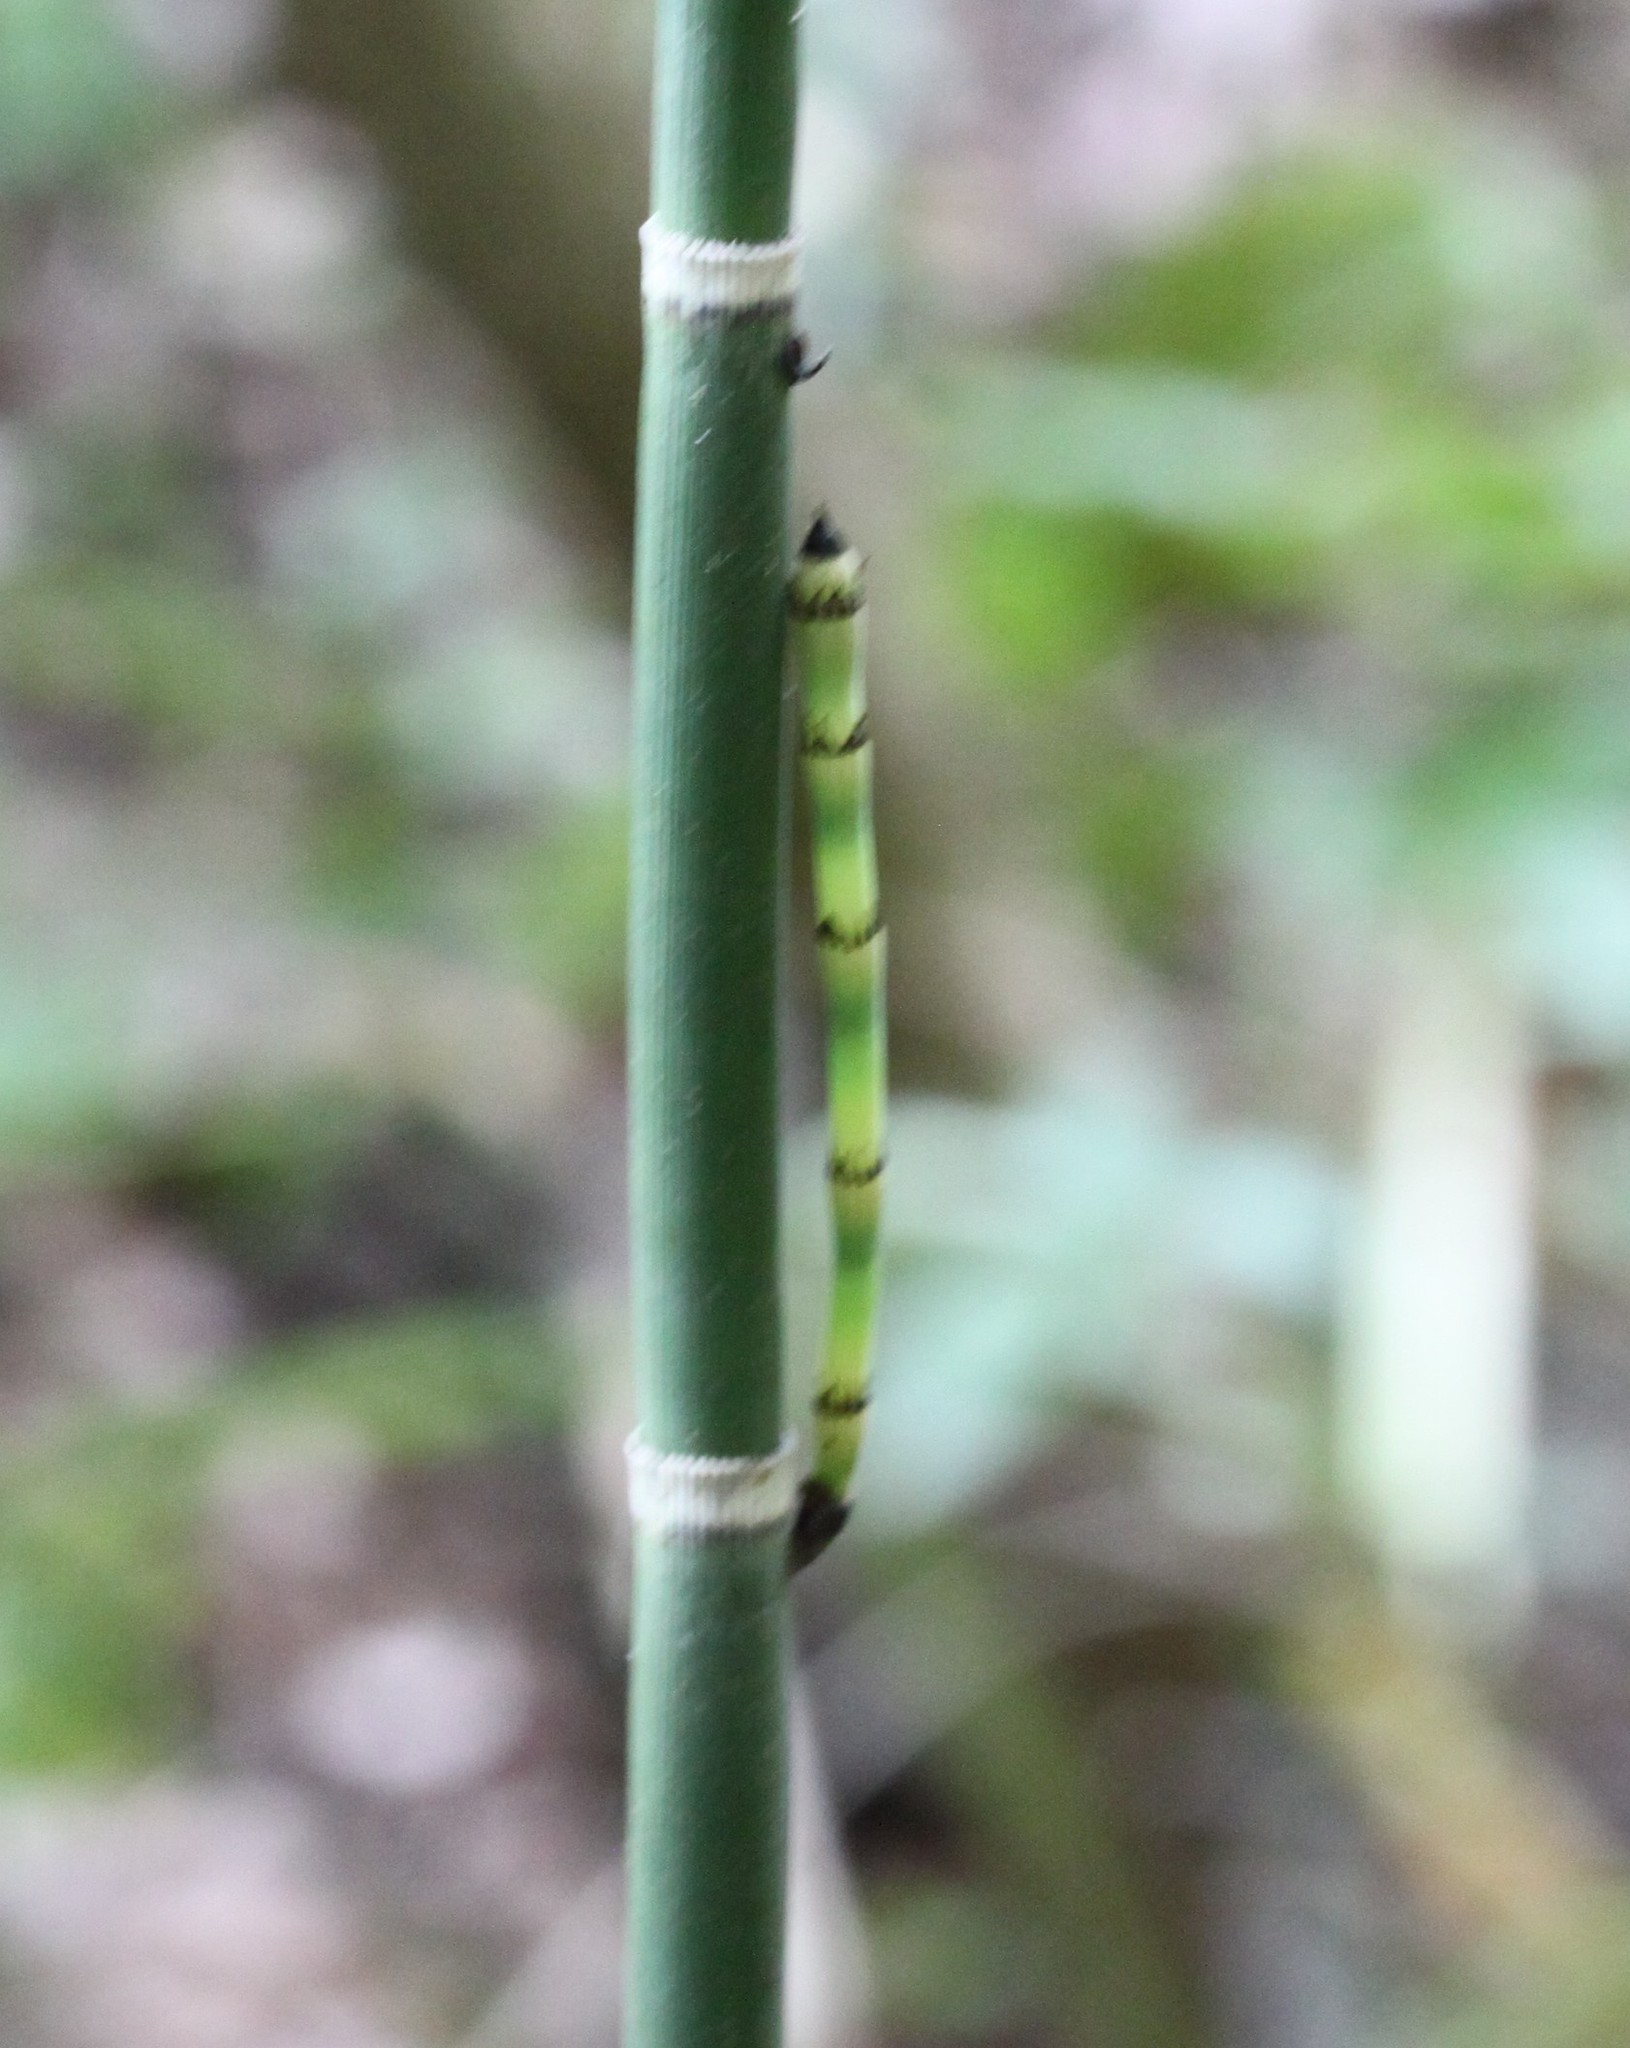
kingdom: Plantae
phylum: Tracheophyta
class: Polypodiopsida
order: Equisetales
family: Equisetaceae
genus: Equisetum
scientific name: Equisetum laevigatum
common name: Smooth scouring-rush
